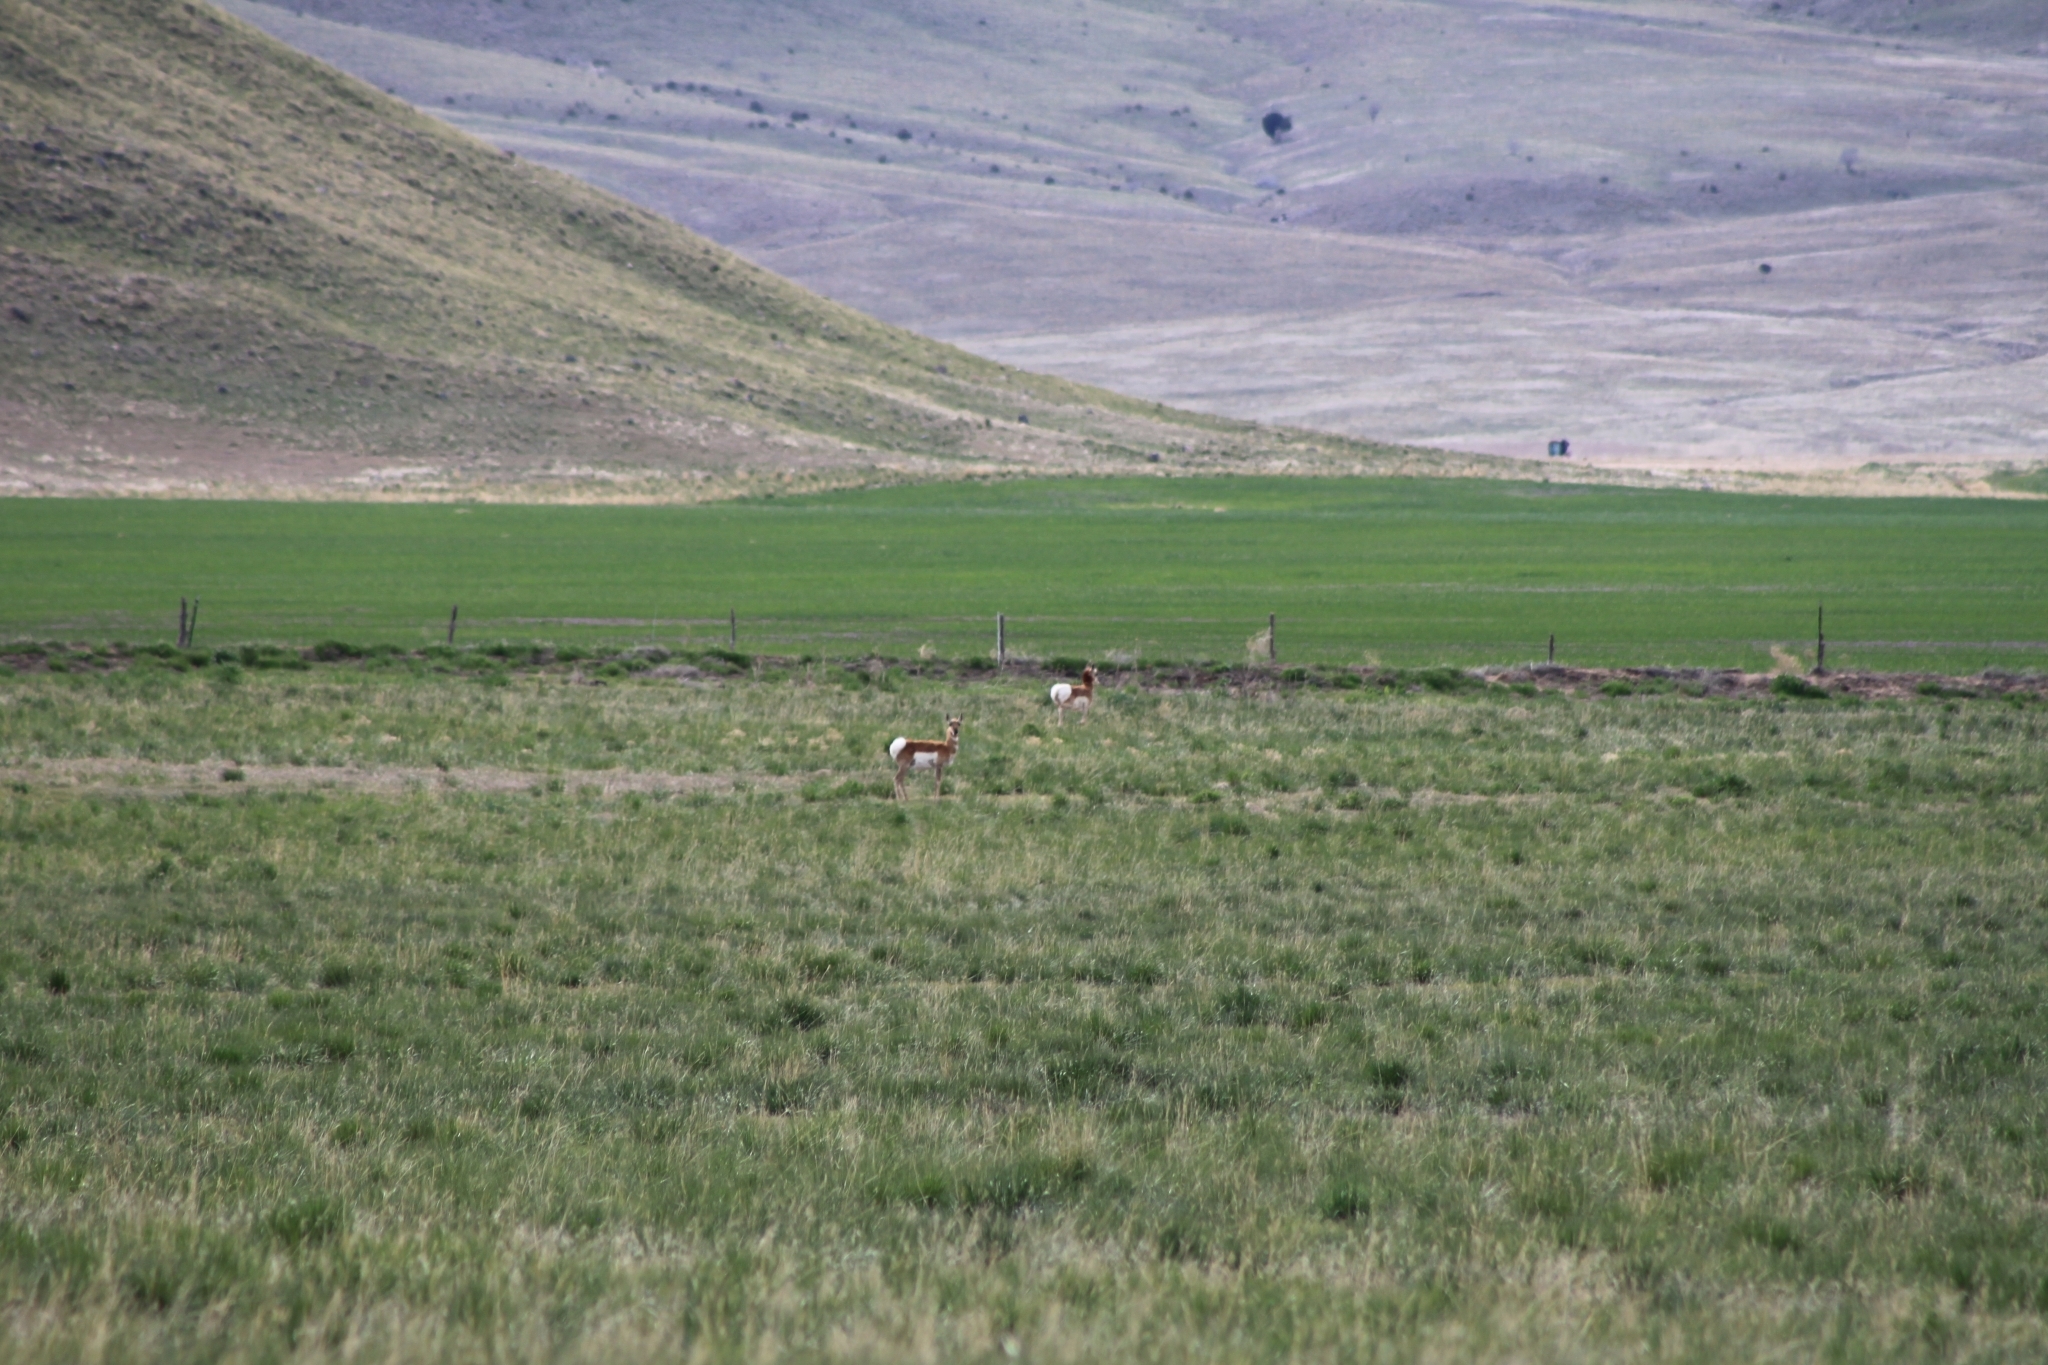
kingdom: Animalia
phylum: Chordata
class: Mammalia
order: Artiodactyla
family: Antilocapridae
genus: Antilocapra
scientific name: Antilocapra americana
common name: Pronghorn
